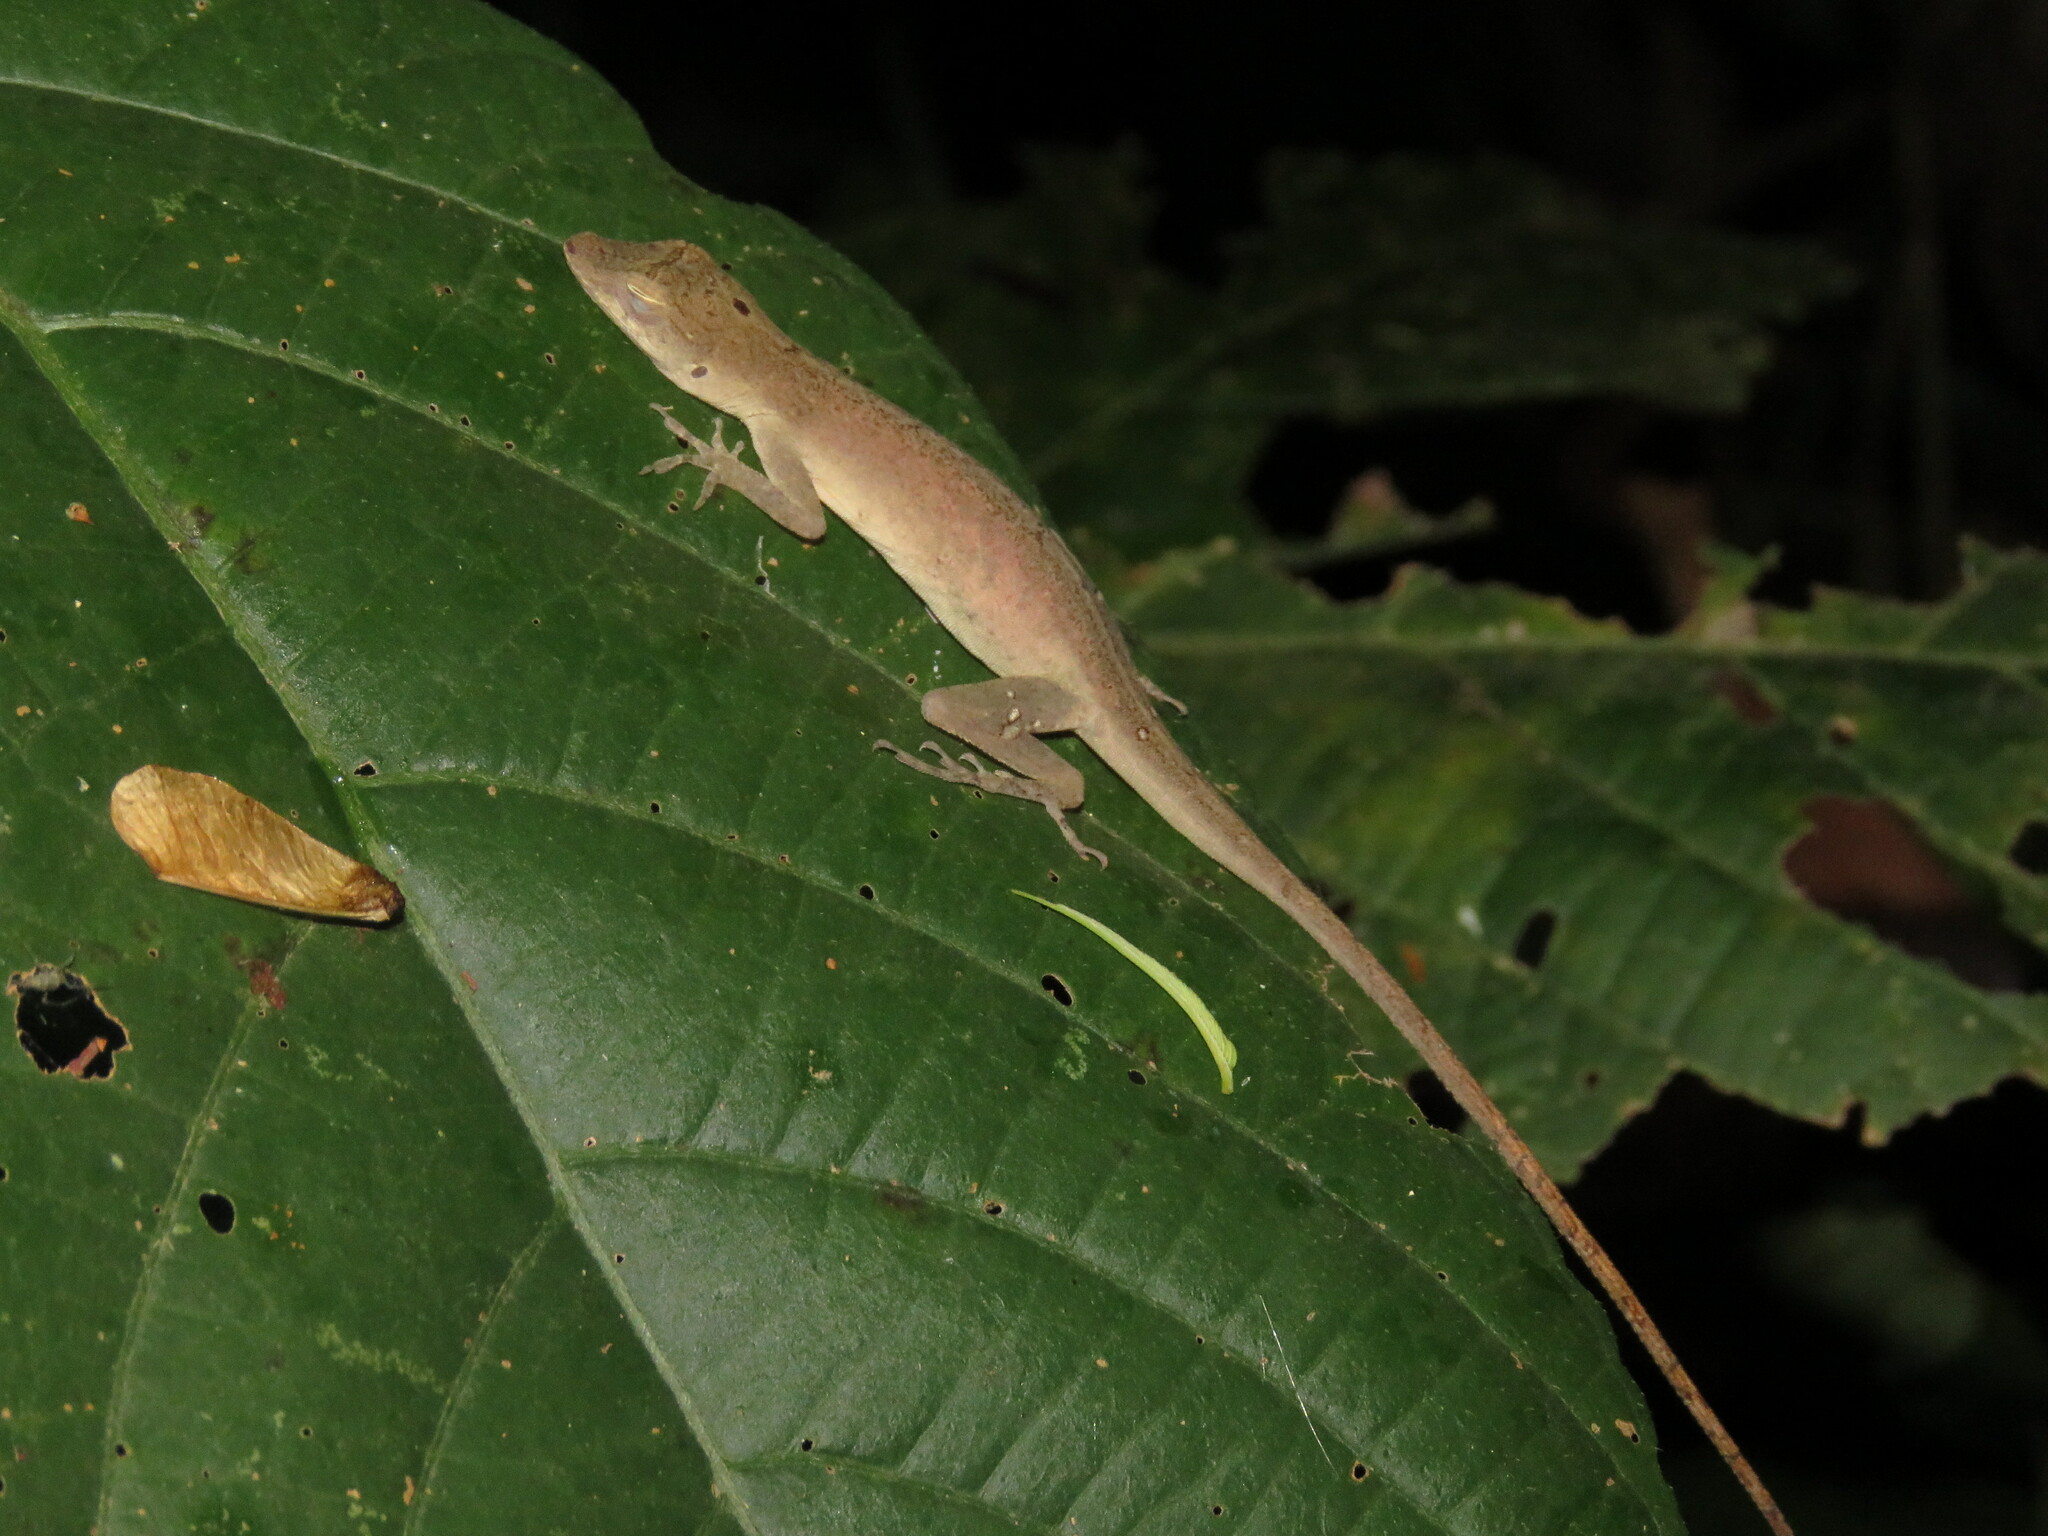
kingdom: Animalia
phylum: Chordata
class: Squamata
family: Dactyloidae
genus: Anolis
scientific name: Anolis fuscoauratus
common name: Brown-eared anole
